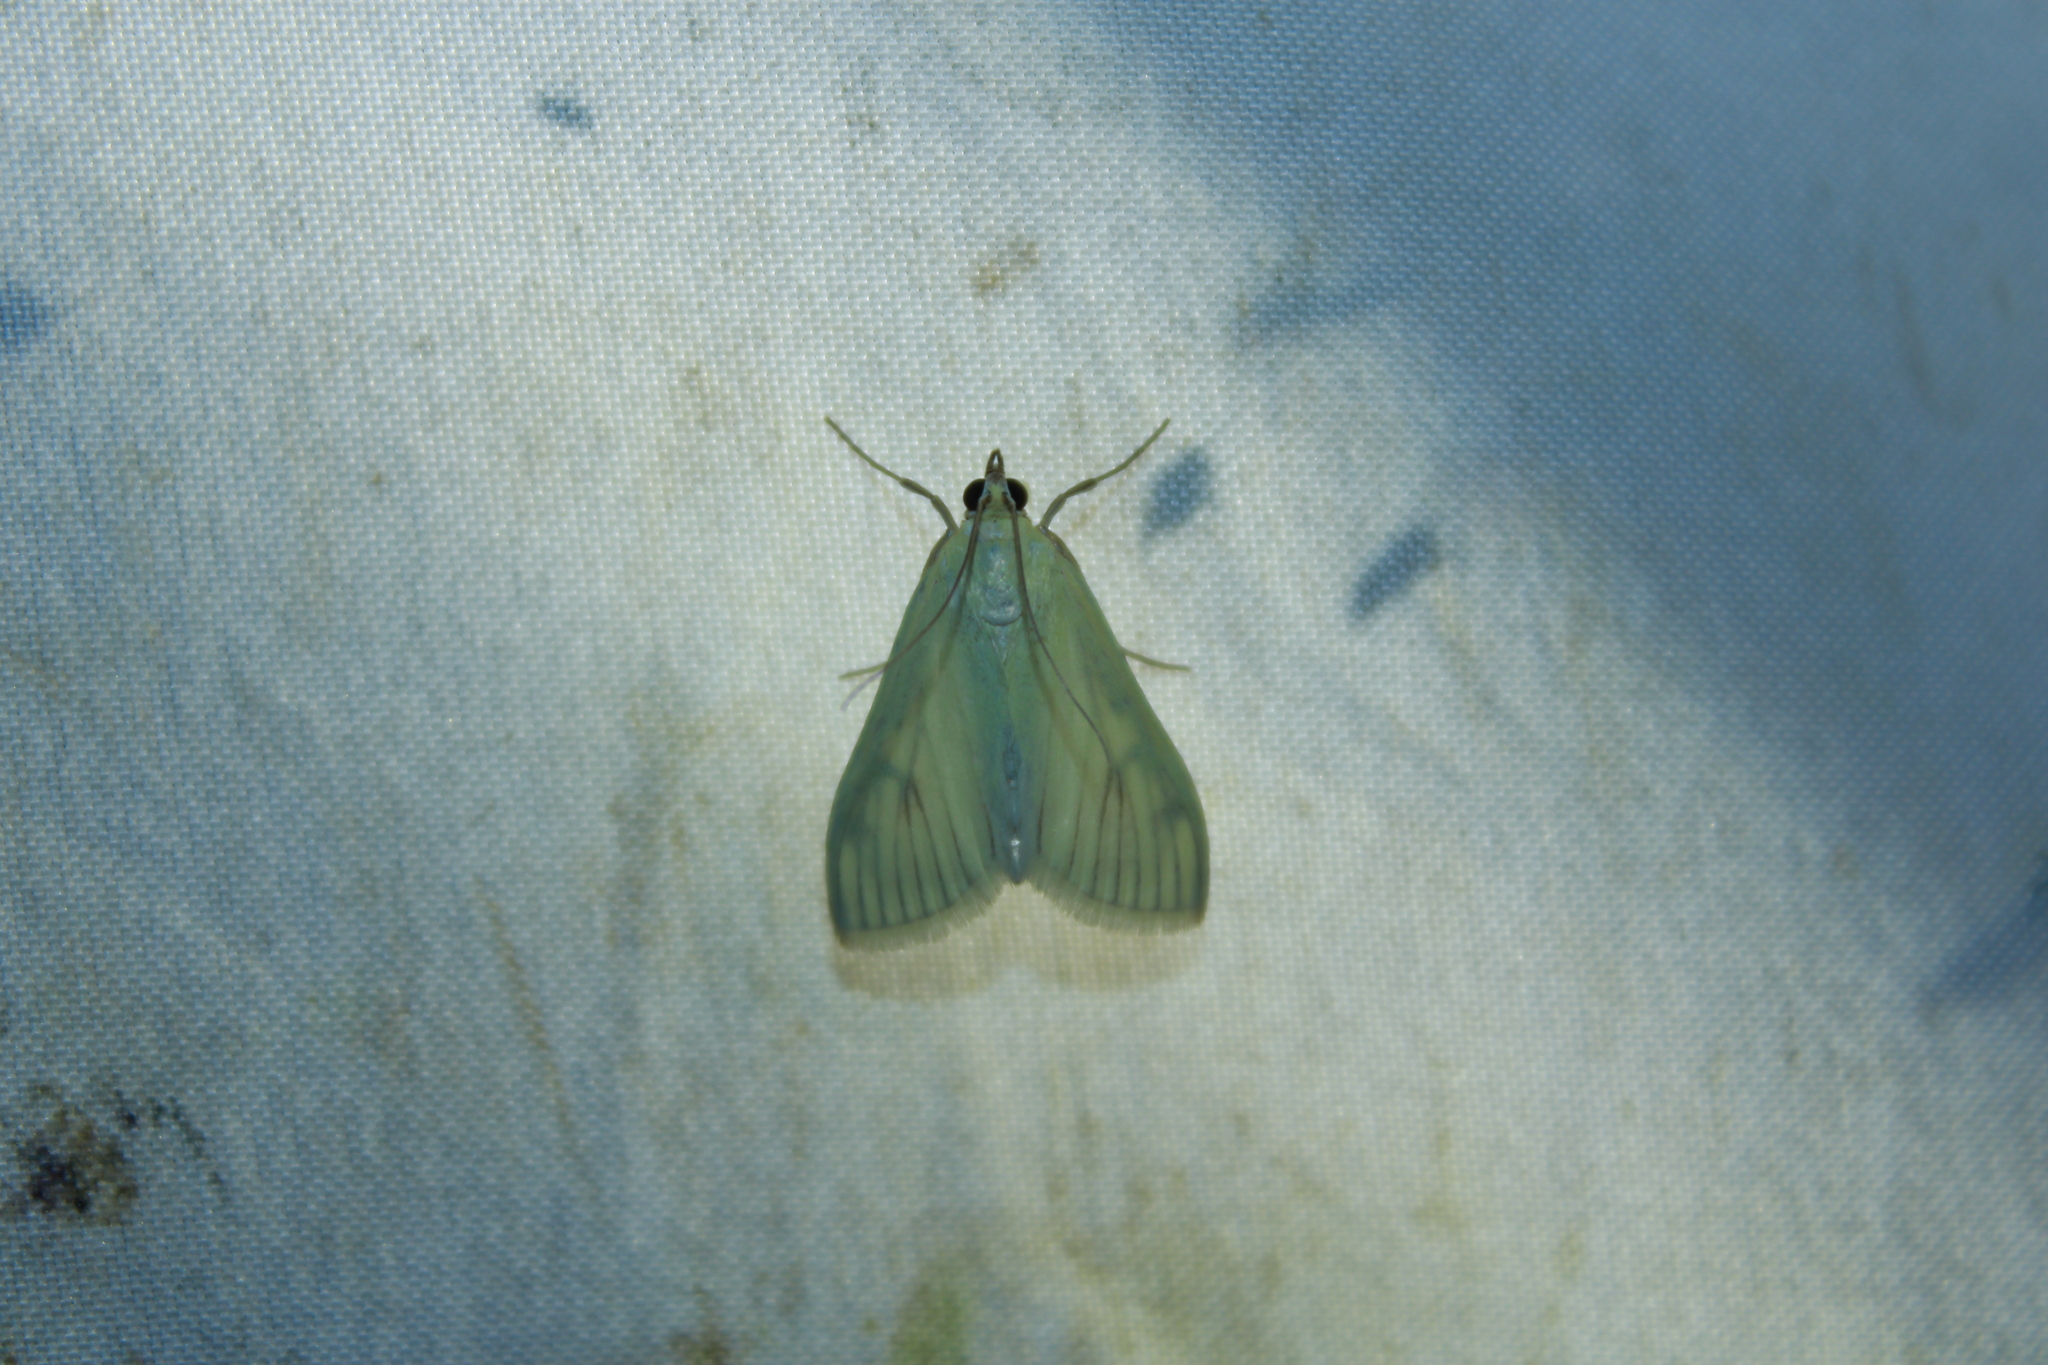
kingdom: Animalia
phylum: Arthropoda
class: Insecta
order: Lepidoptera
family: Crambidae
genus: Sitochroa
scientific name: Sitochroa palealis
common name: Greenish-yellow sitochroa moth
